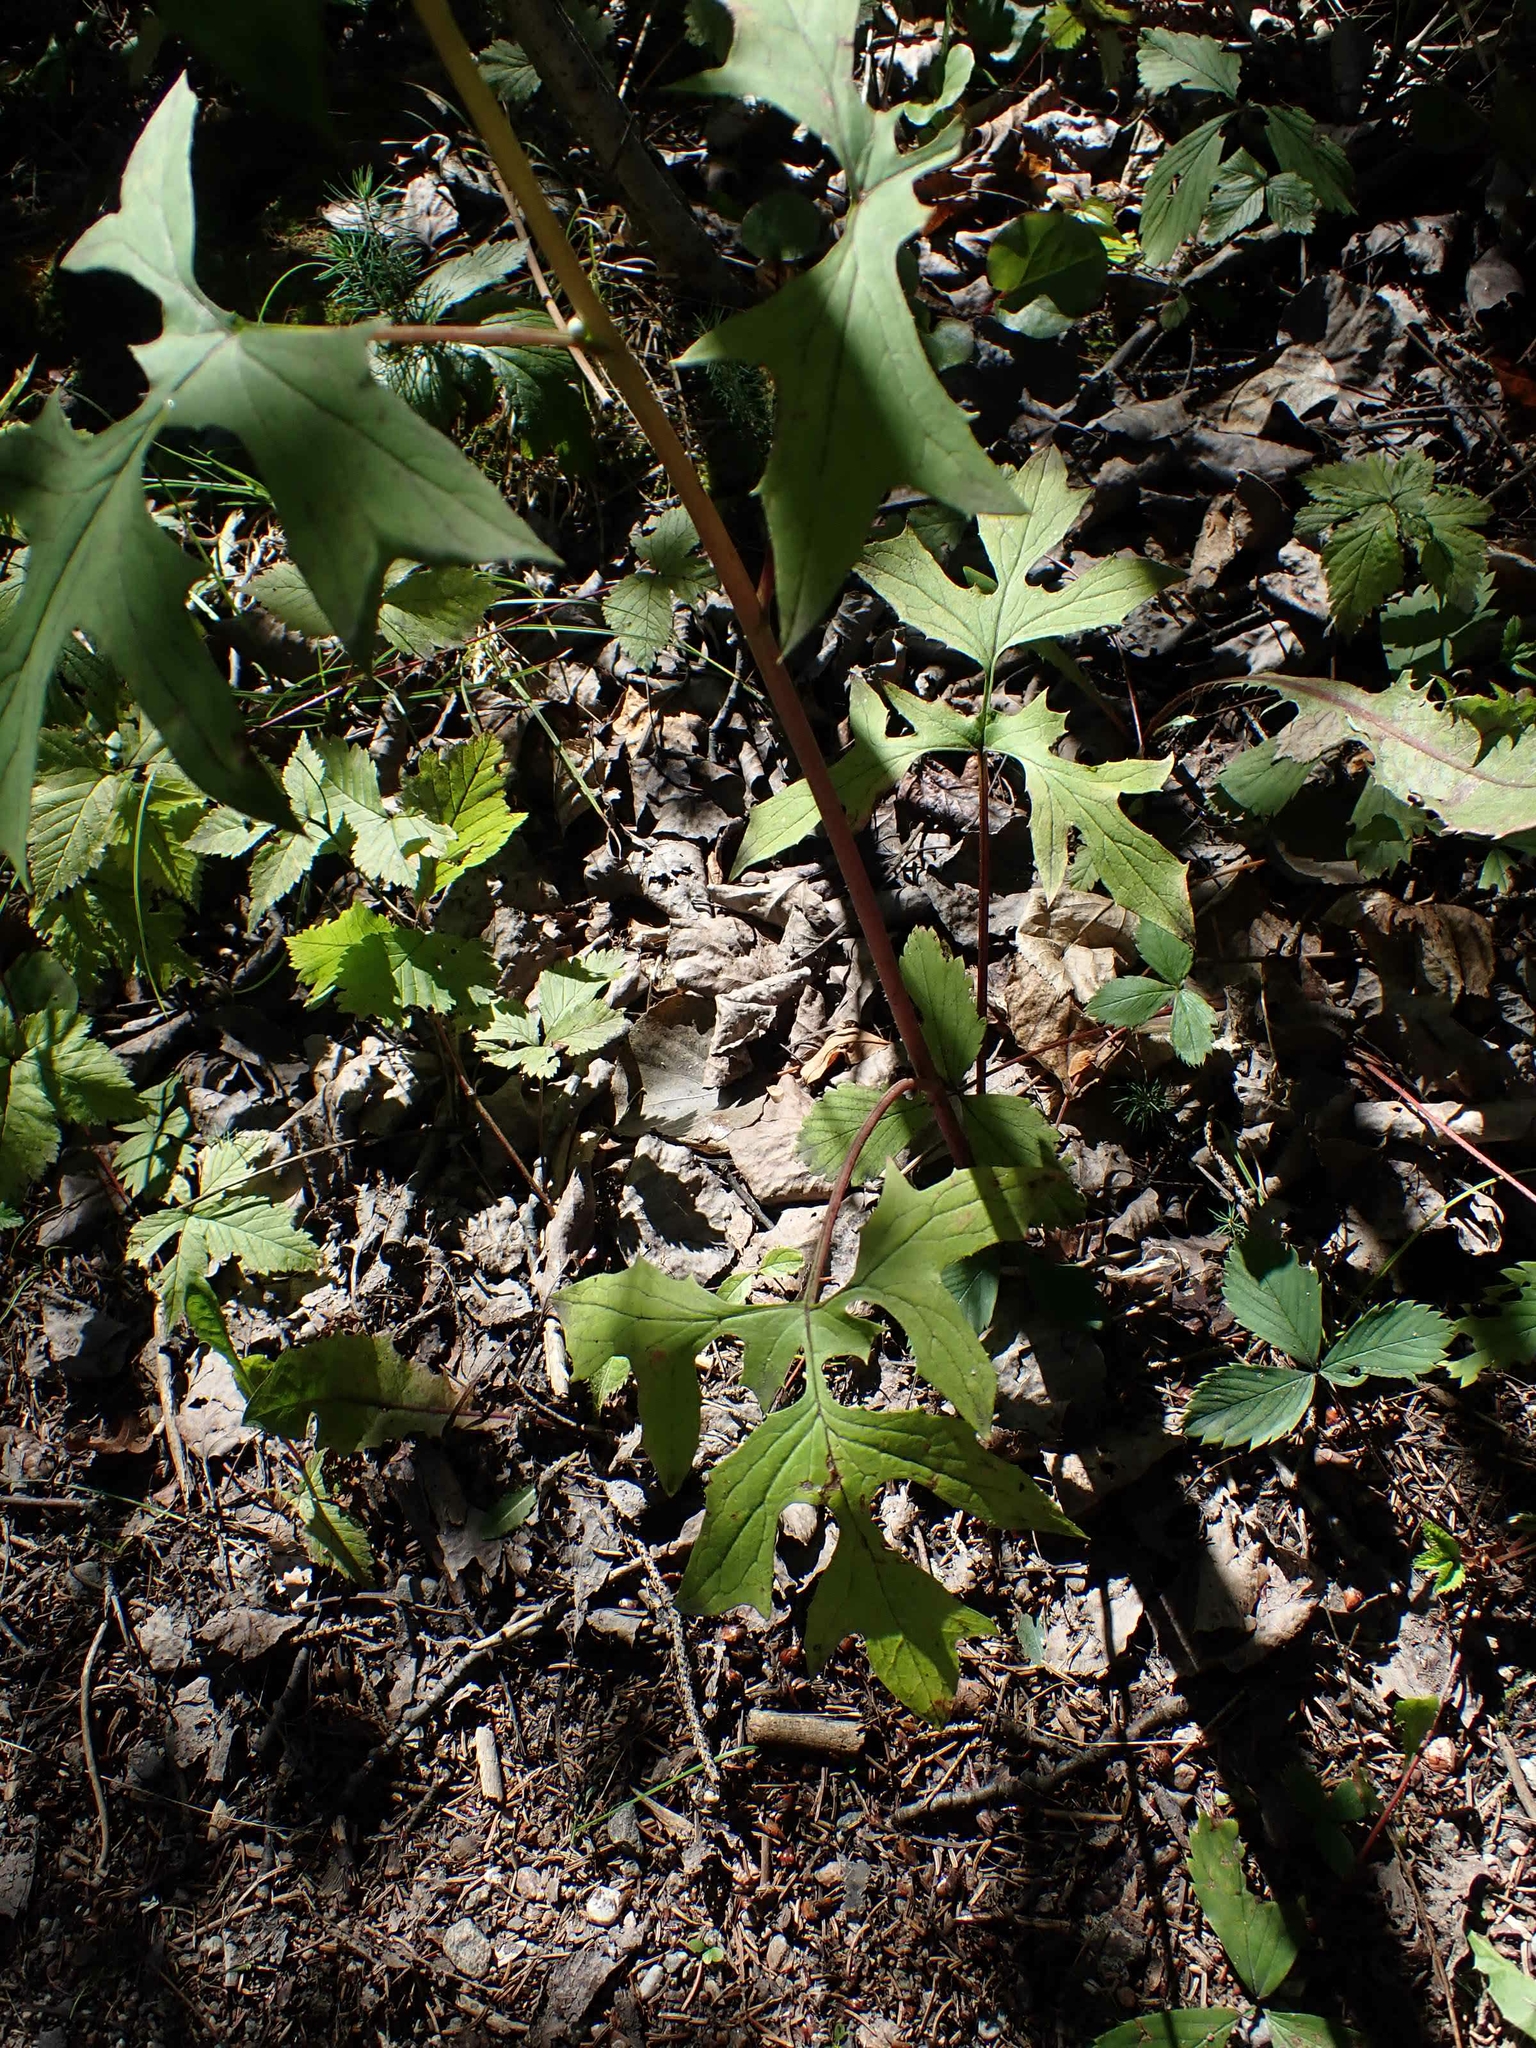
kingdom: Plantae
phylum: Tracheophyta
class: Magnoliopsida
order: Asterales
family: Asteraceae
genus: Nabalus
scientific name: Nabalus albus
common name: White rattlesnakeroot
